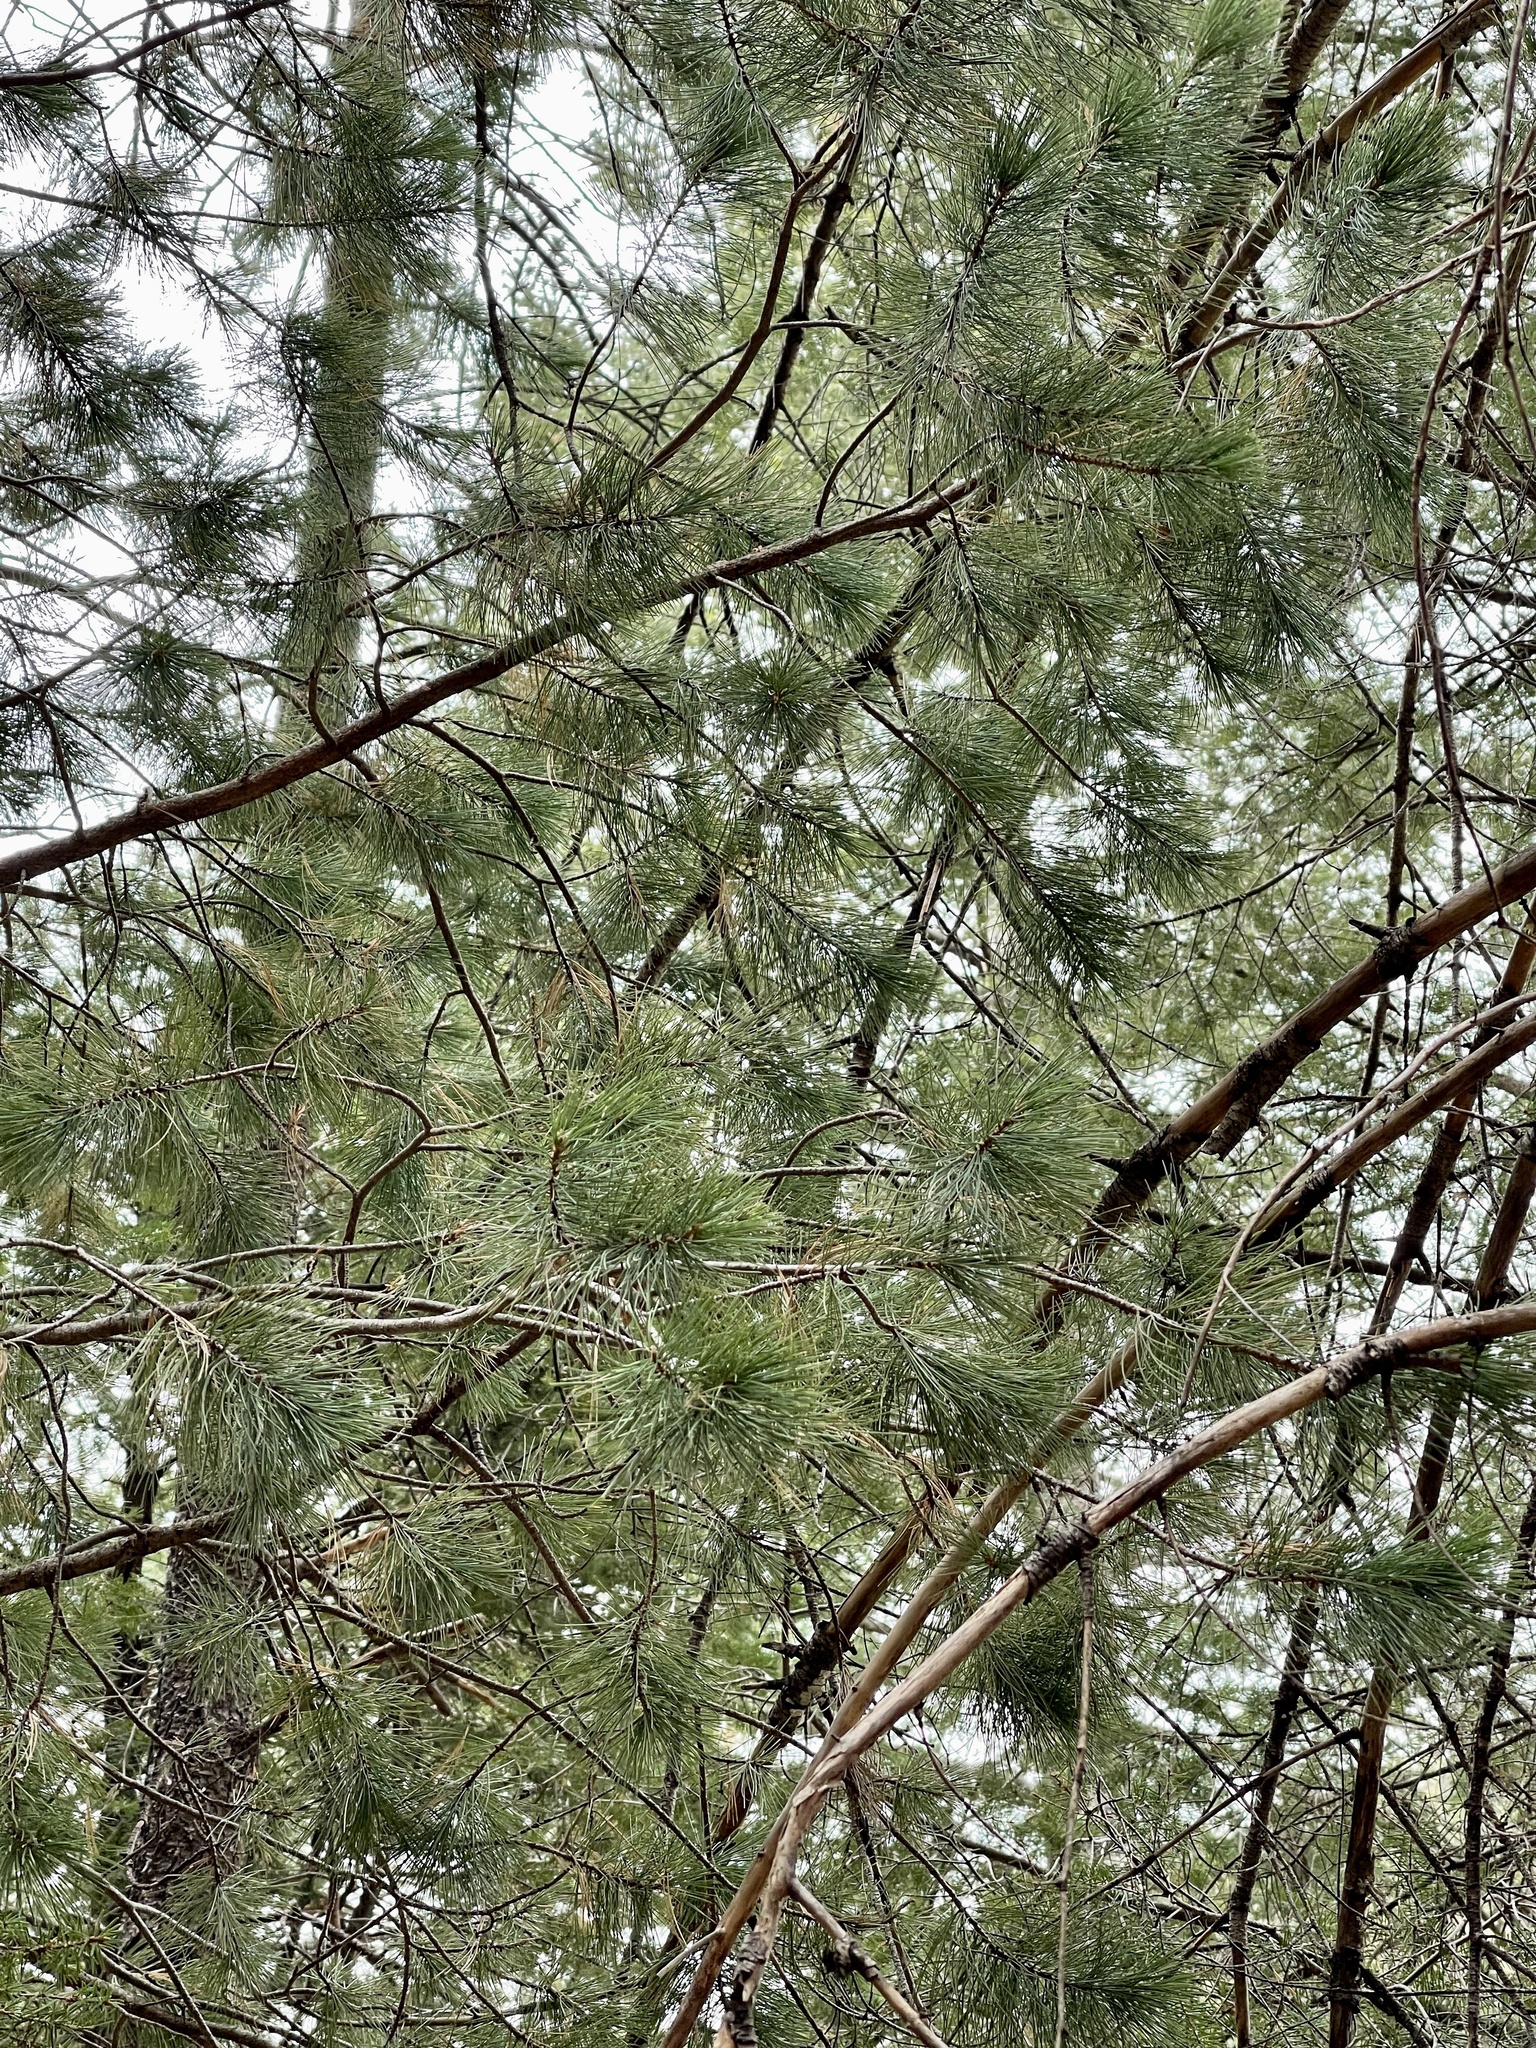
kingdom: Plantae
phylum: Tracheophyta
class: Pinopsida
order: Pinales
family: Pinaceae
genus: Pinus
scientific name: Pinus strobiformis
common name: Southwestern white pine
